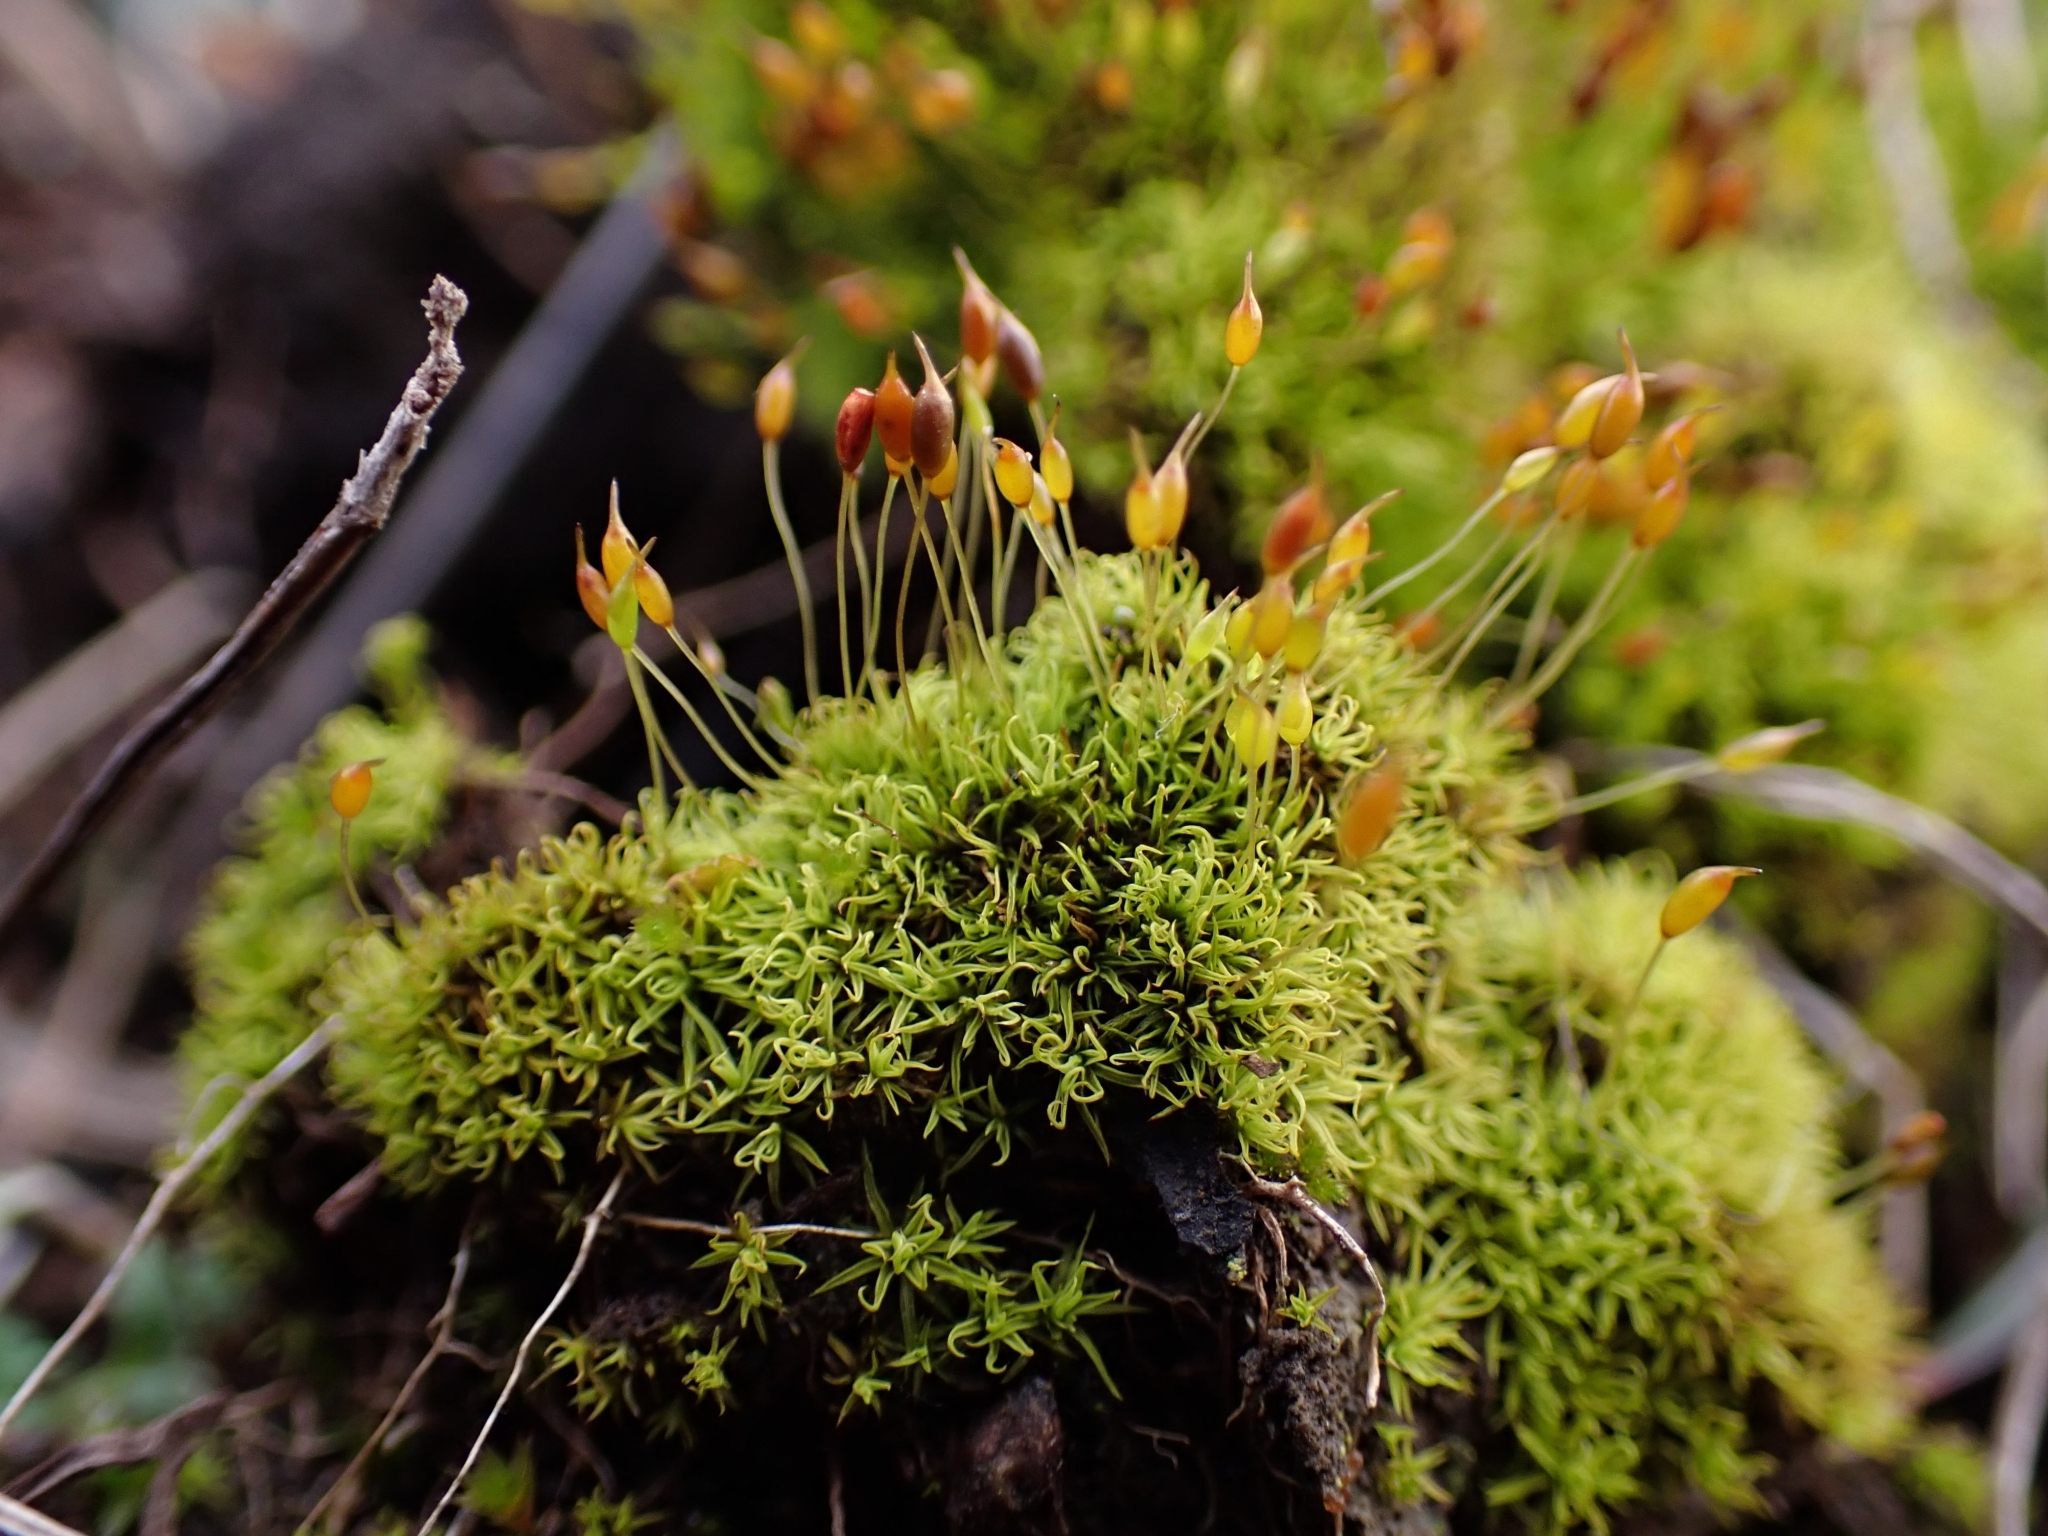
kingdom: Plantae
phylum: Bryophyta
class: Bryopsida
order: Pottiales
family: Pottiaceae
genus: Weissia
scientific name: Weissia controversa
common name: Green-tufted stubble moss
